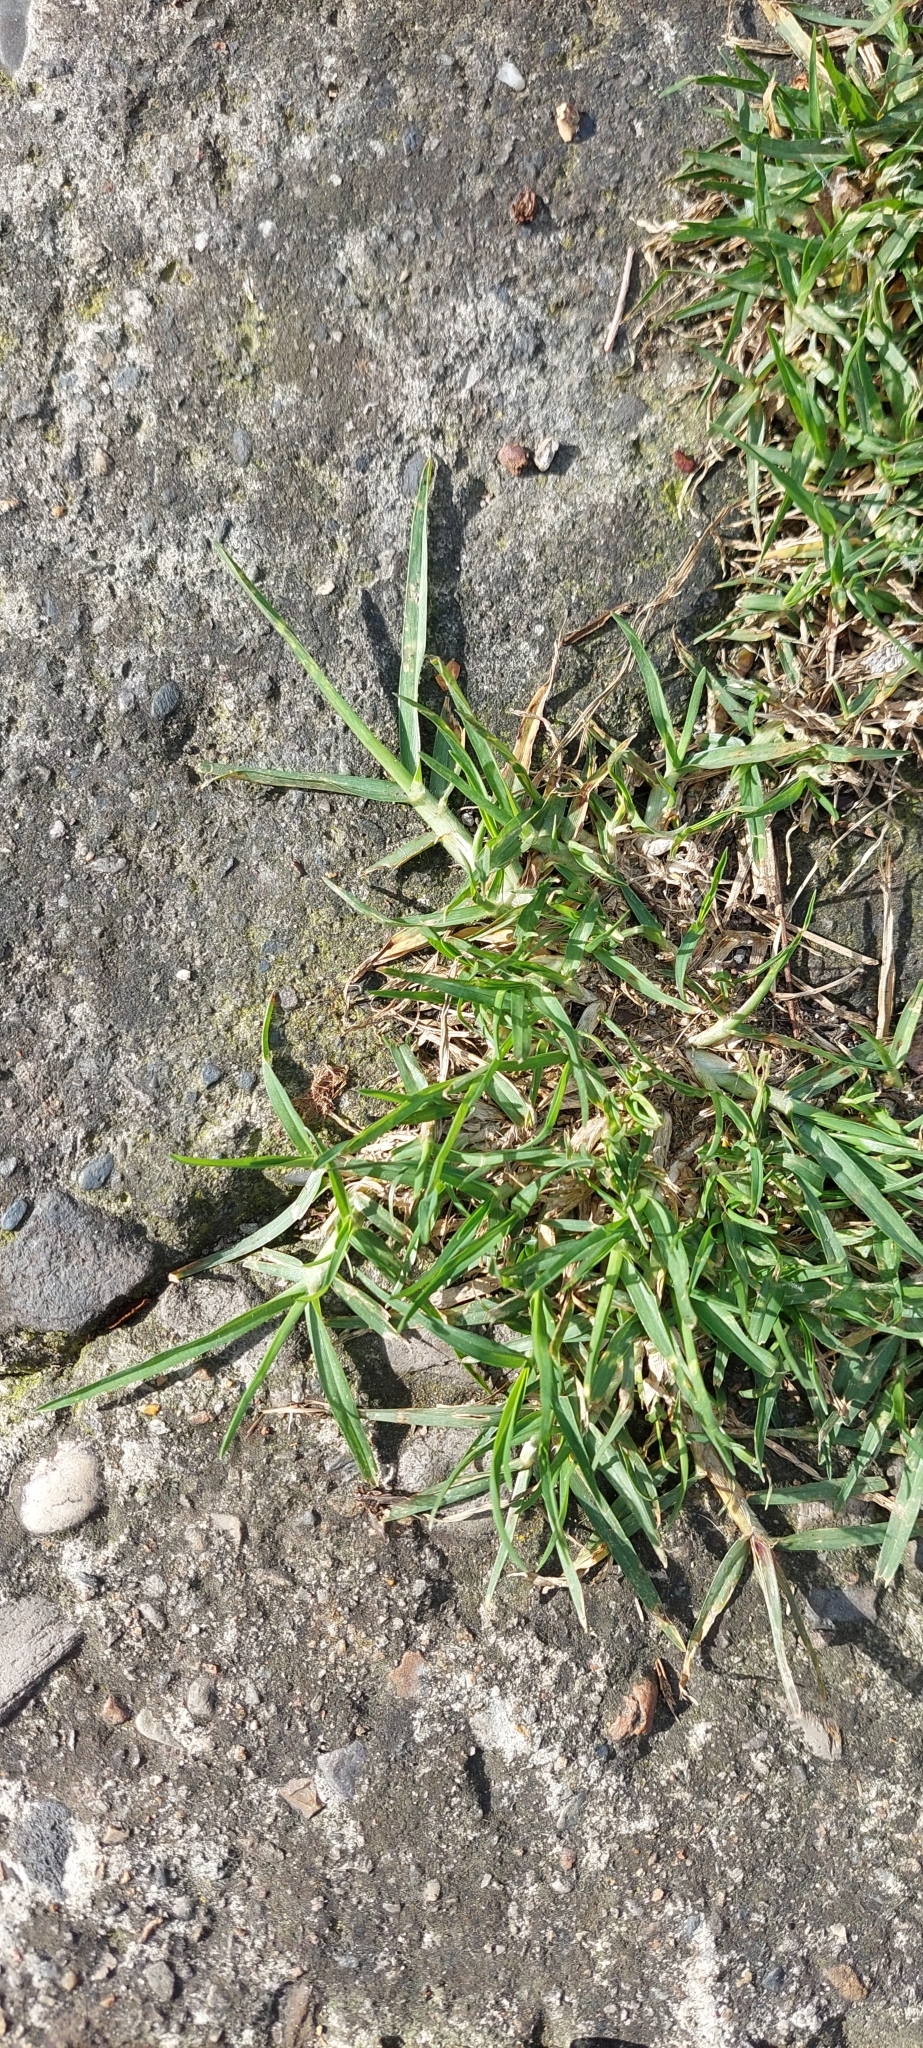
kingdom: Plantae
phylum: Tracheophyta
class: Liliopsida
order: Poales
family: Poaceae
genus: Cenchrus
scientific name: Cenchrus clandestinus
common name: Kikuyugrass
